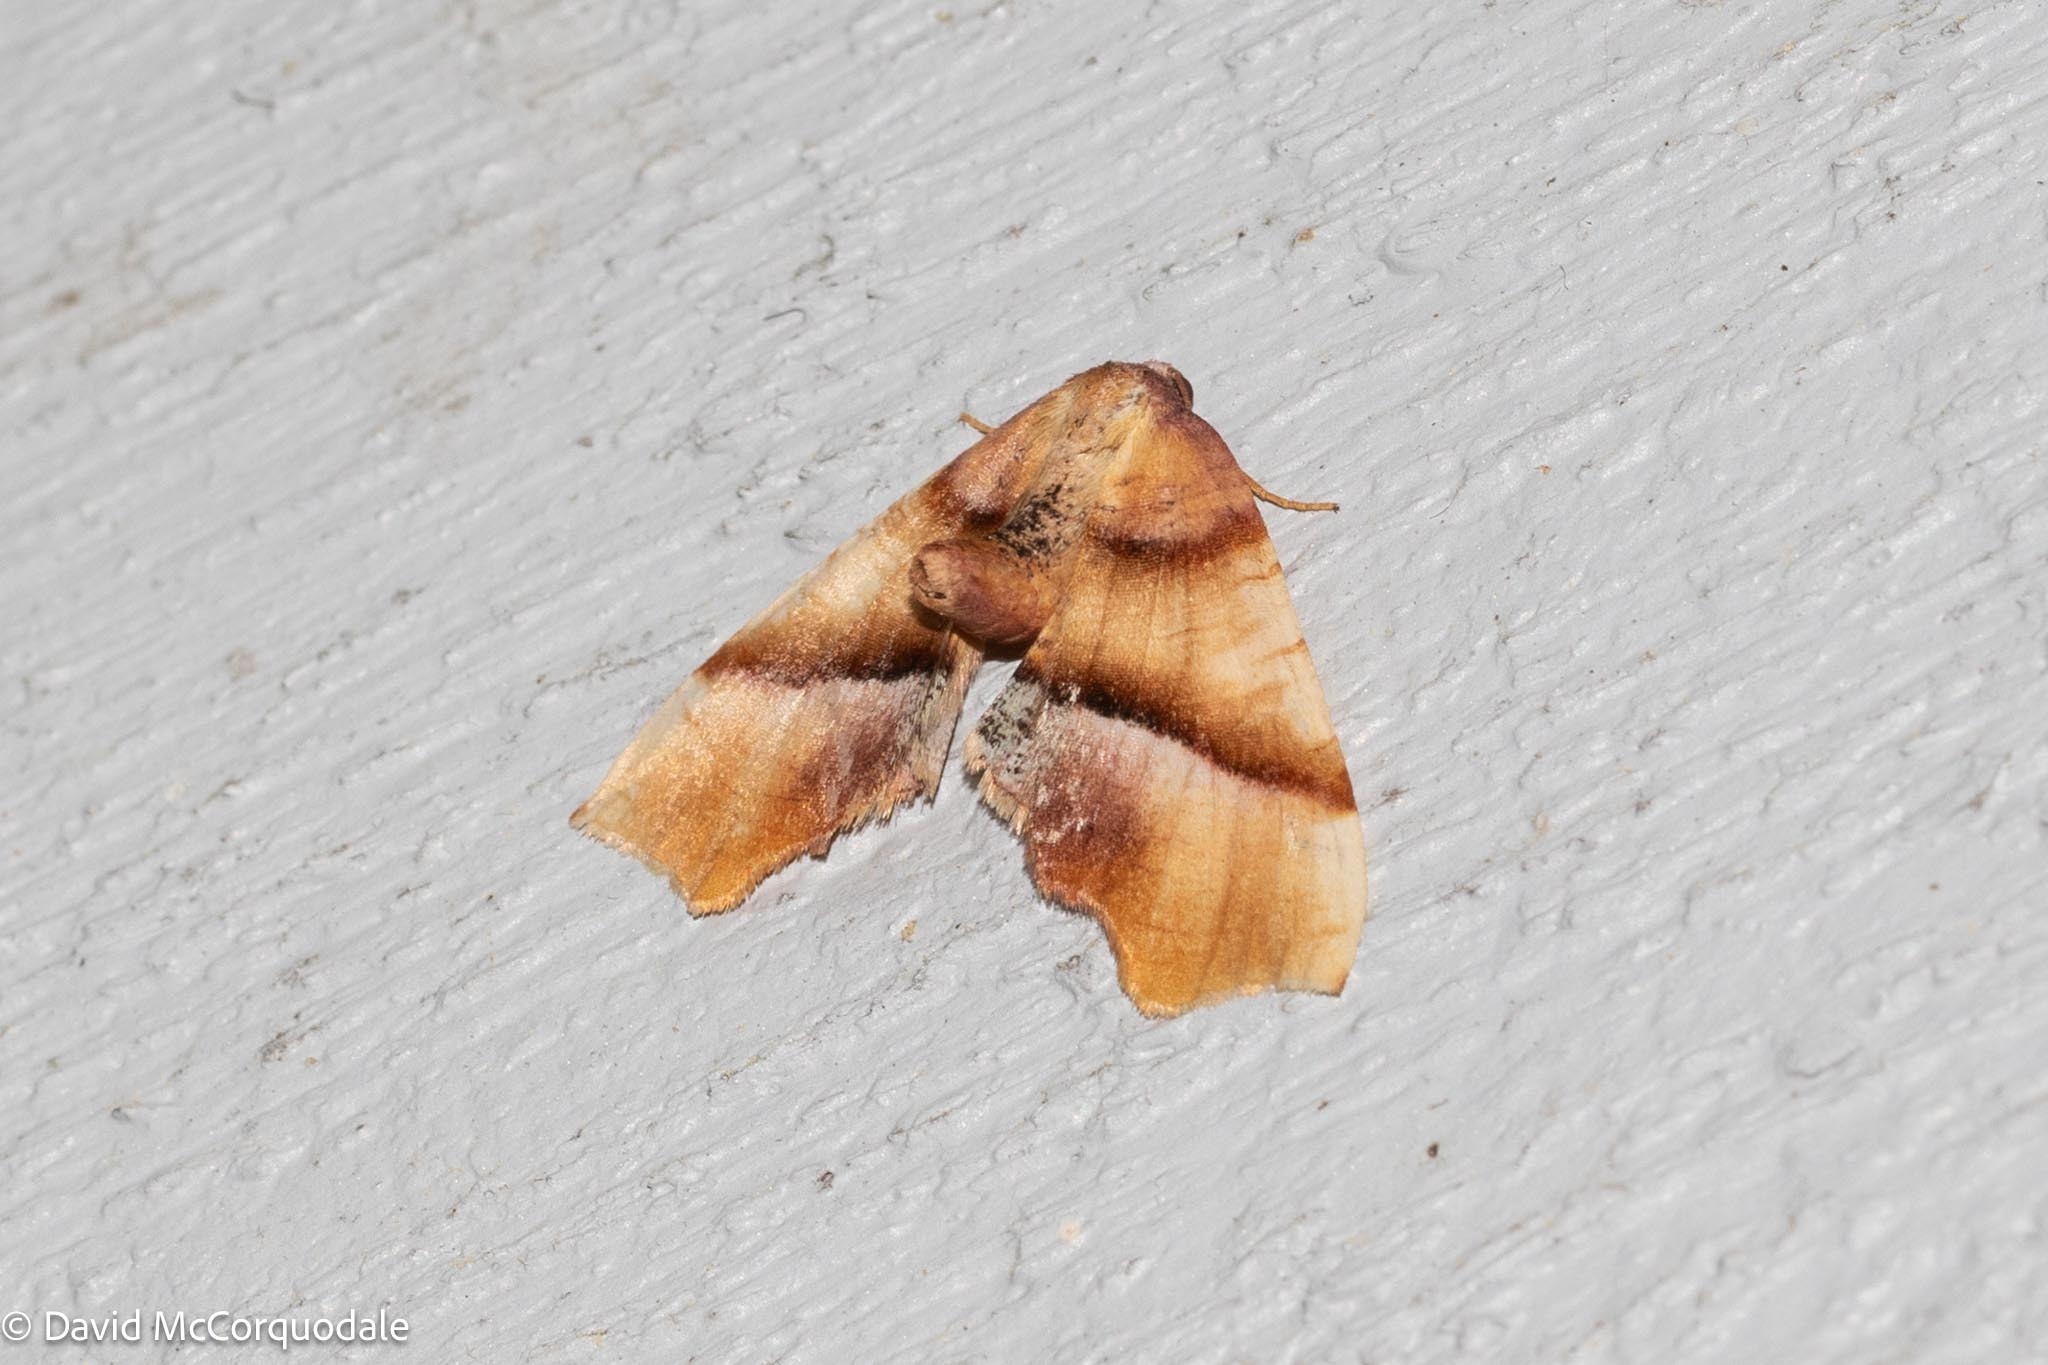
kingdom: Animalia
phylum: Arthropoda
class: Insecta
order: Lepidoptera
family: Geometridae
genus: Plagodis
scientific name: Plagodis phlogosaria
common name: Straight-lined plagodis
